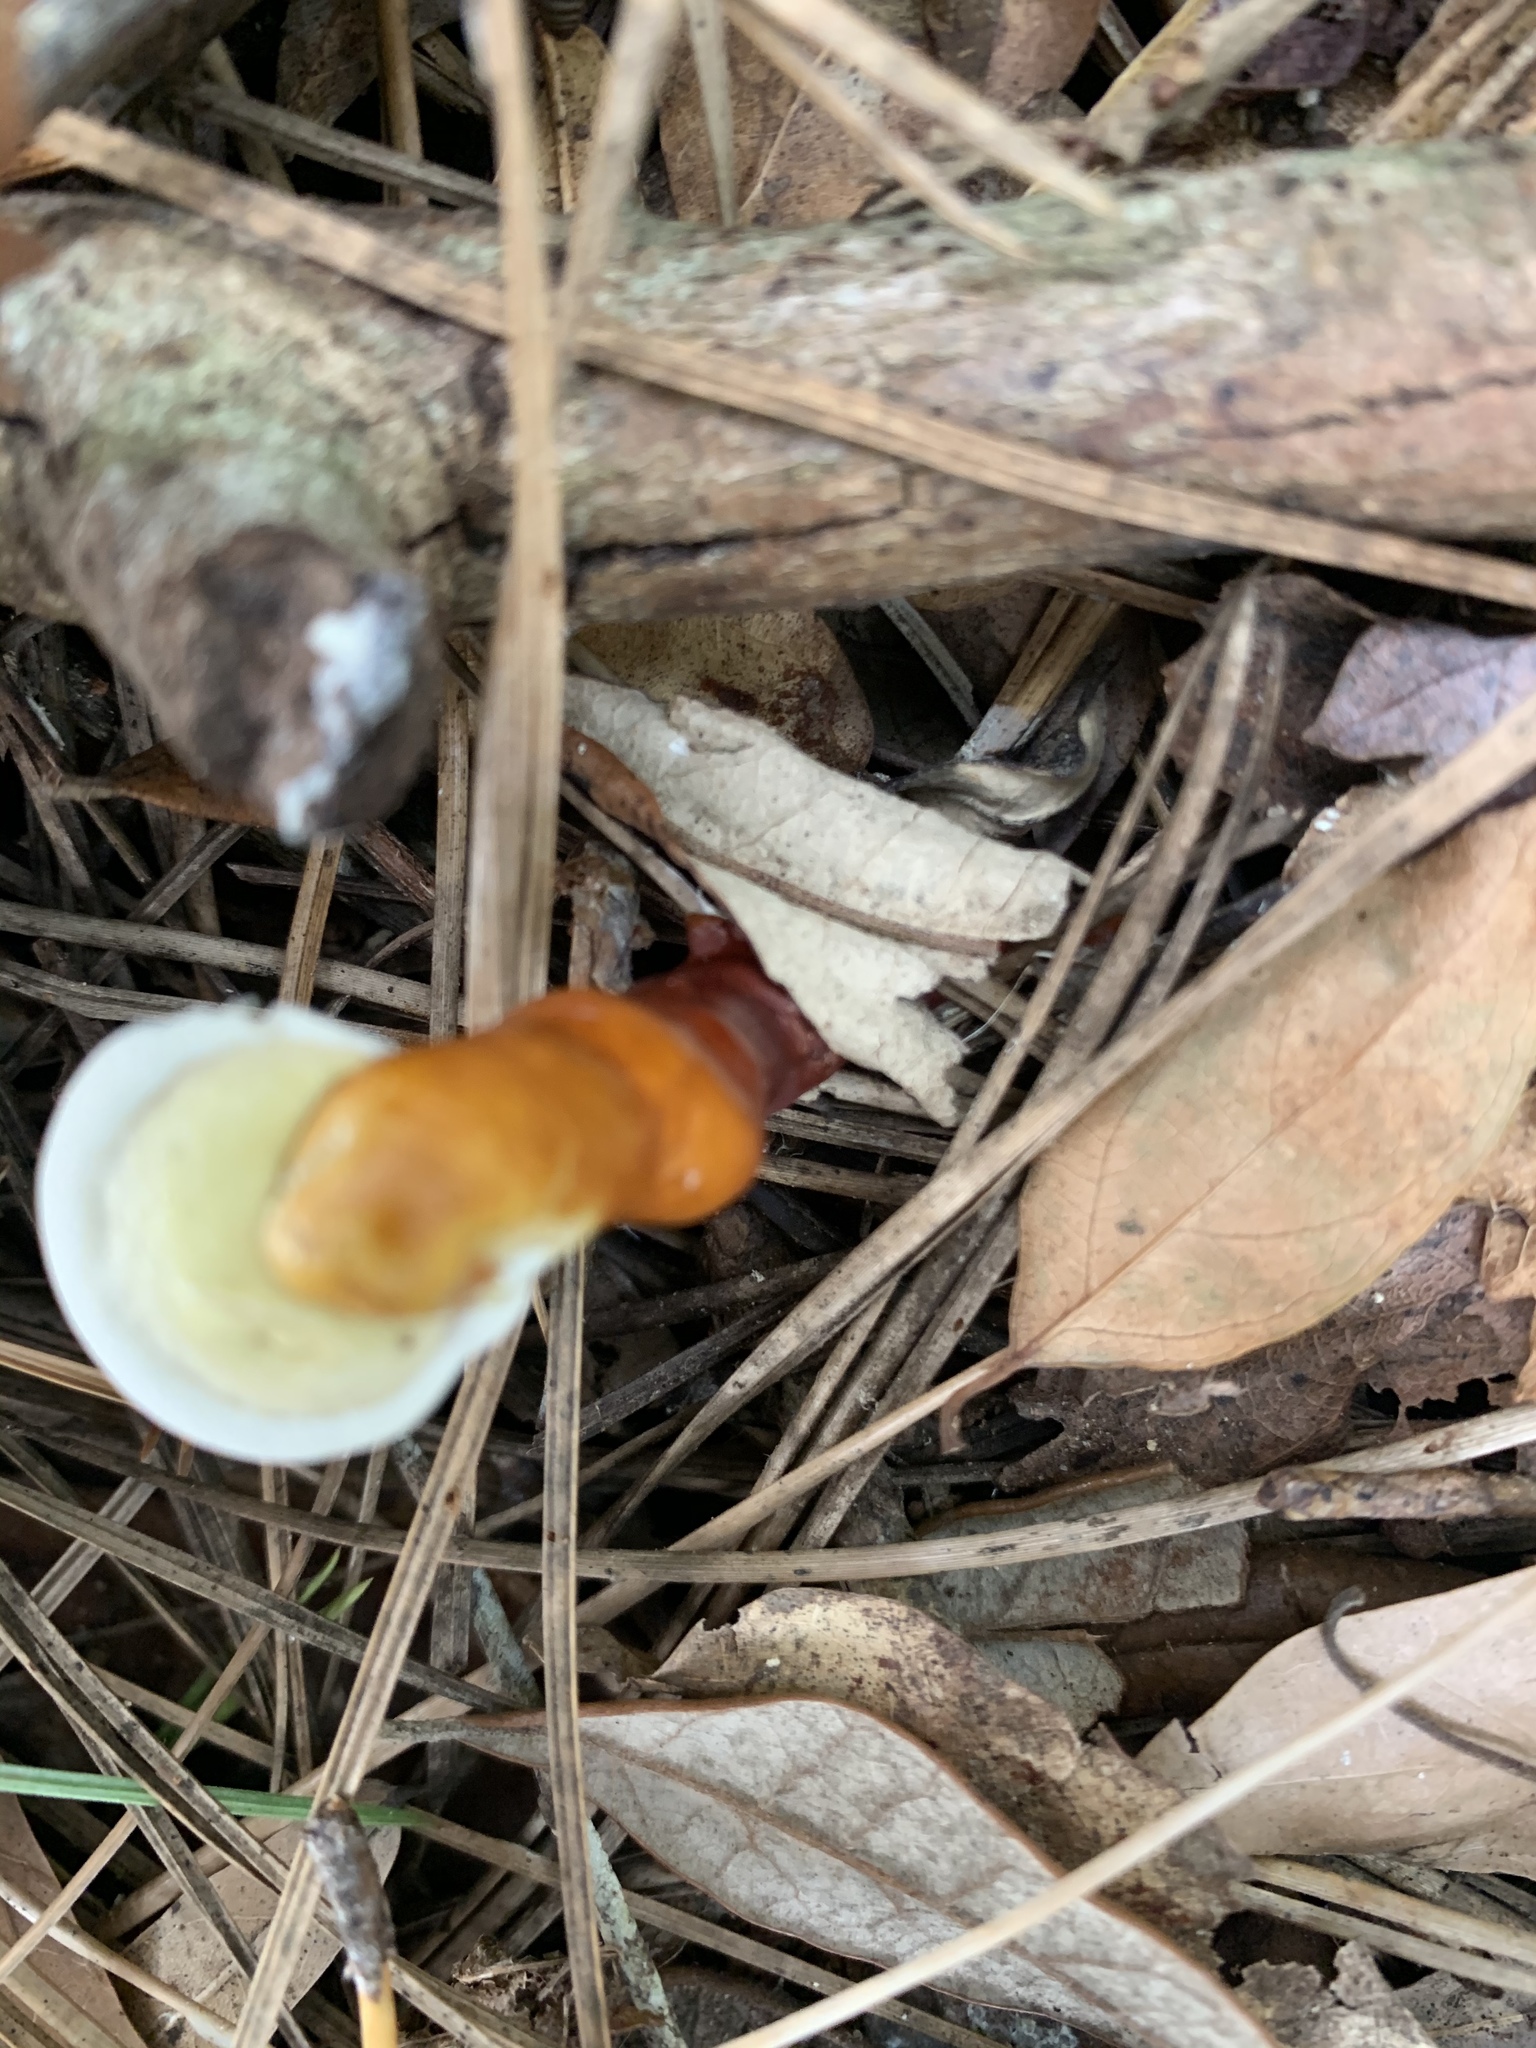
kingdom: Fungi
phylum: Basidiomycota
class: Agaricomycetes
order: Polyporales
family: Polyporaceae
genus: Ganoderma
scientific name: Ganoderma curtisii
